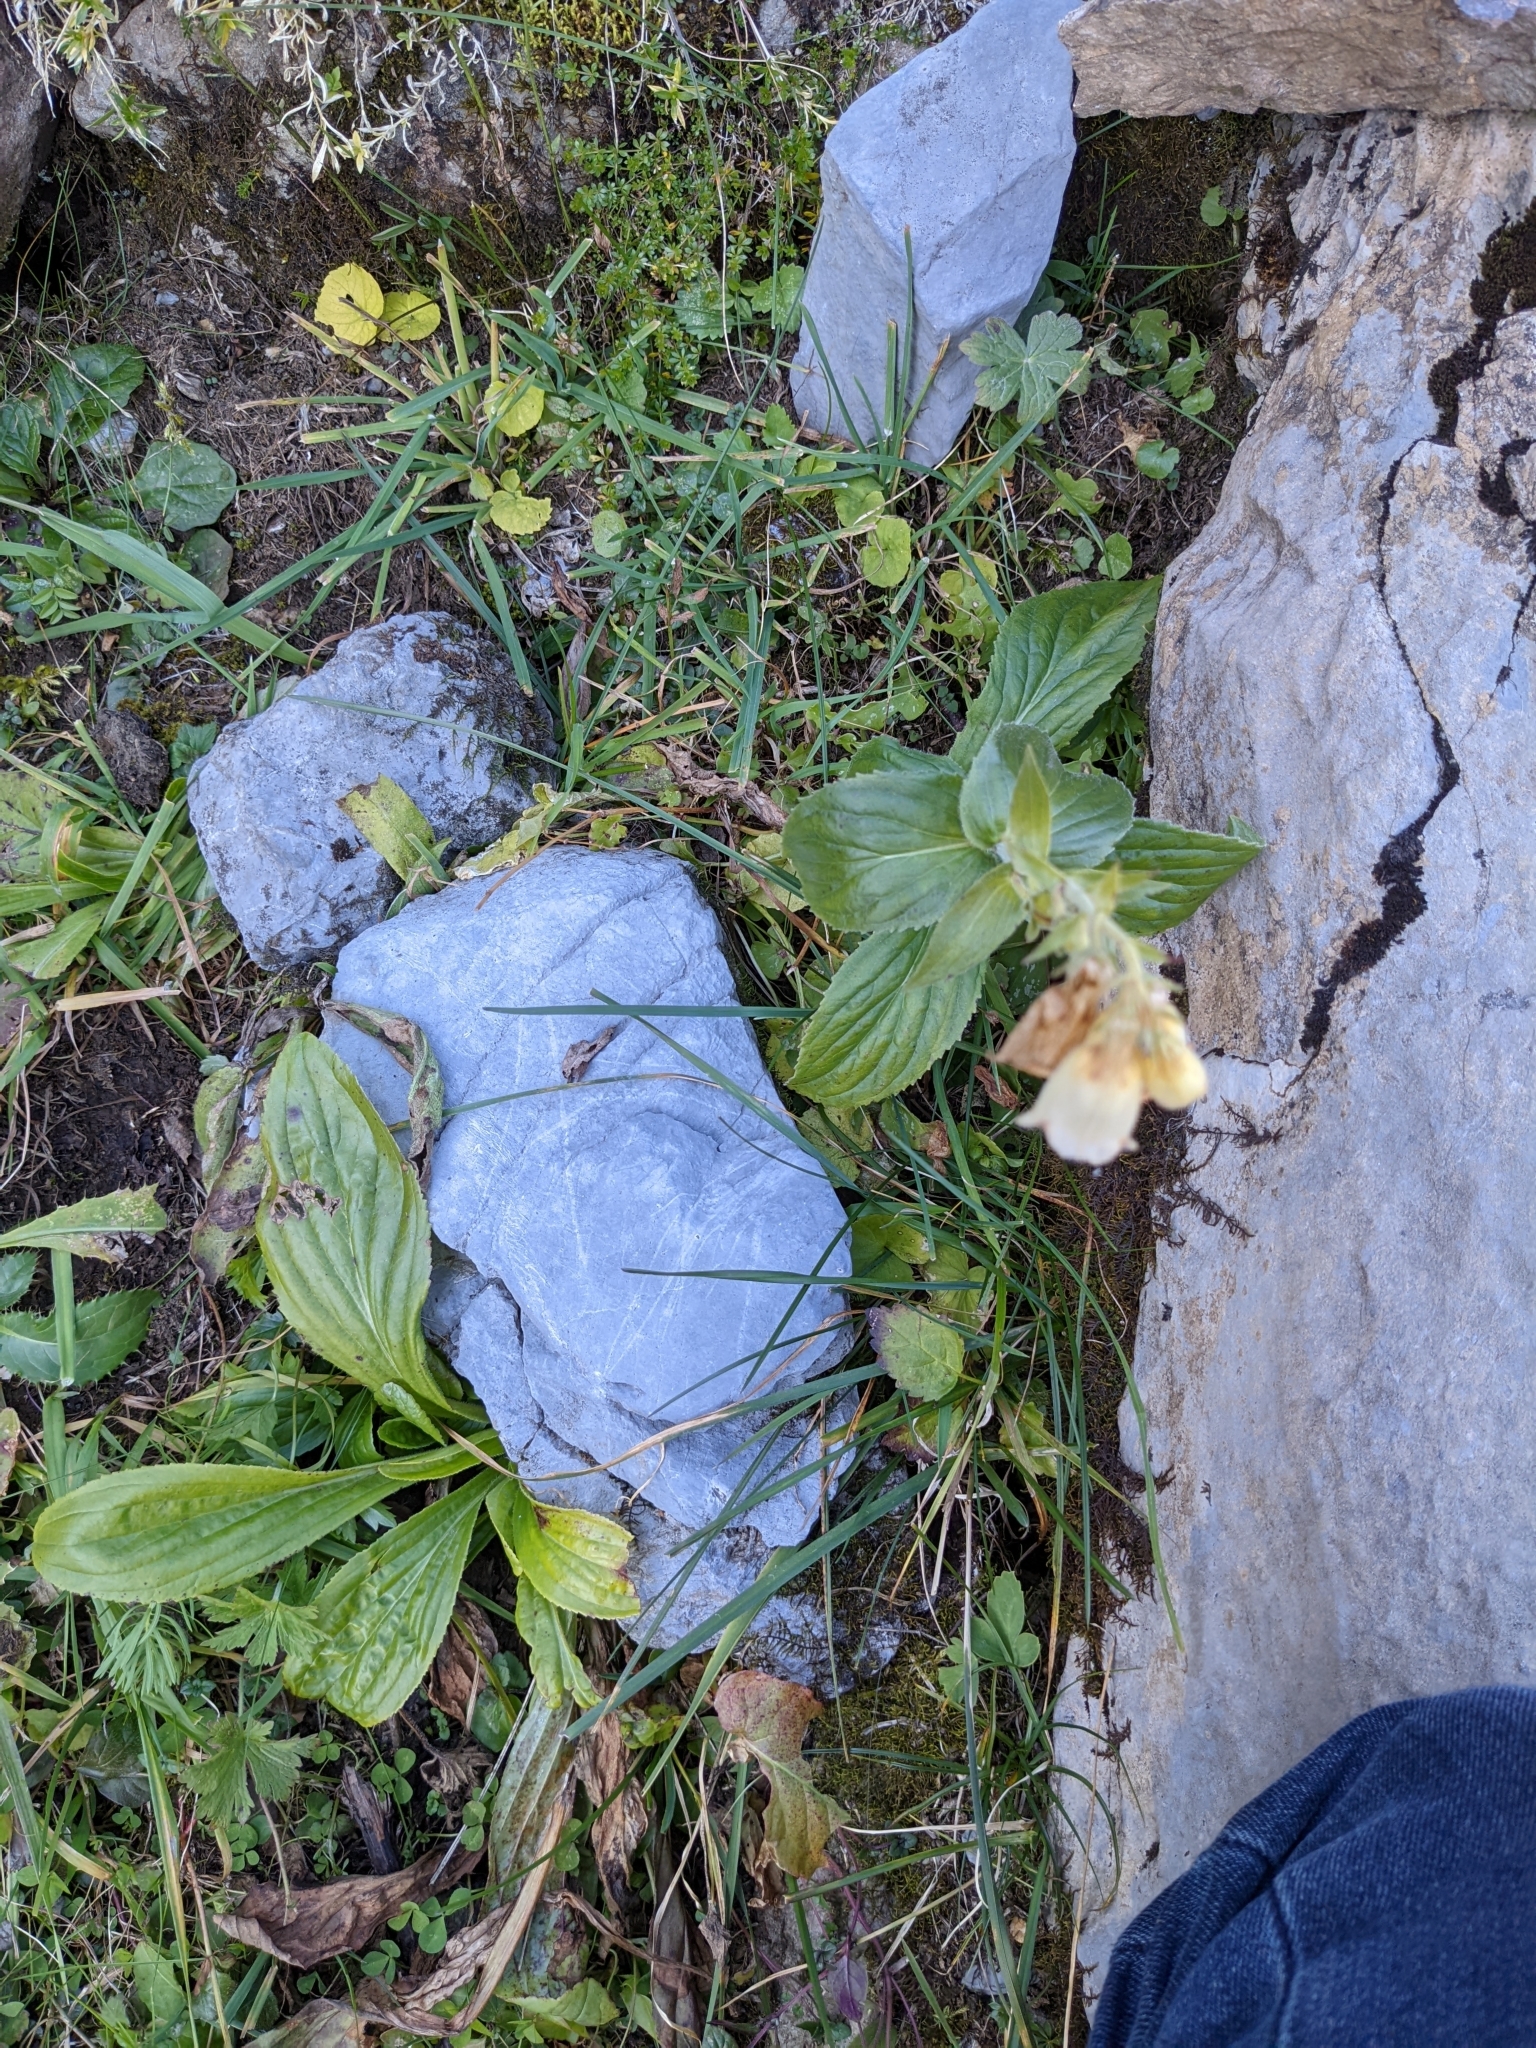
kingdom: Plantae
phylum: Tracheophyta
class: Magnoliopsida
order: Lamiales
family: Plantaginaceae
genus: Digitalis
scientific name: Digitalis grandiflora
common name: Yellow foxglove
